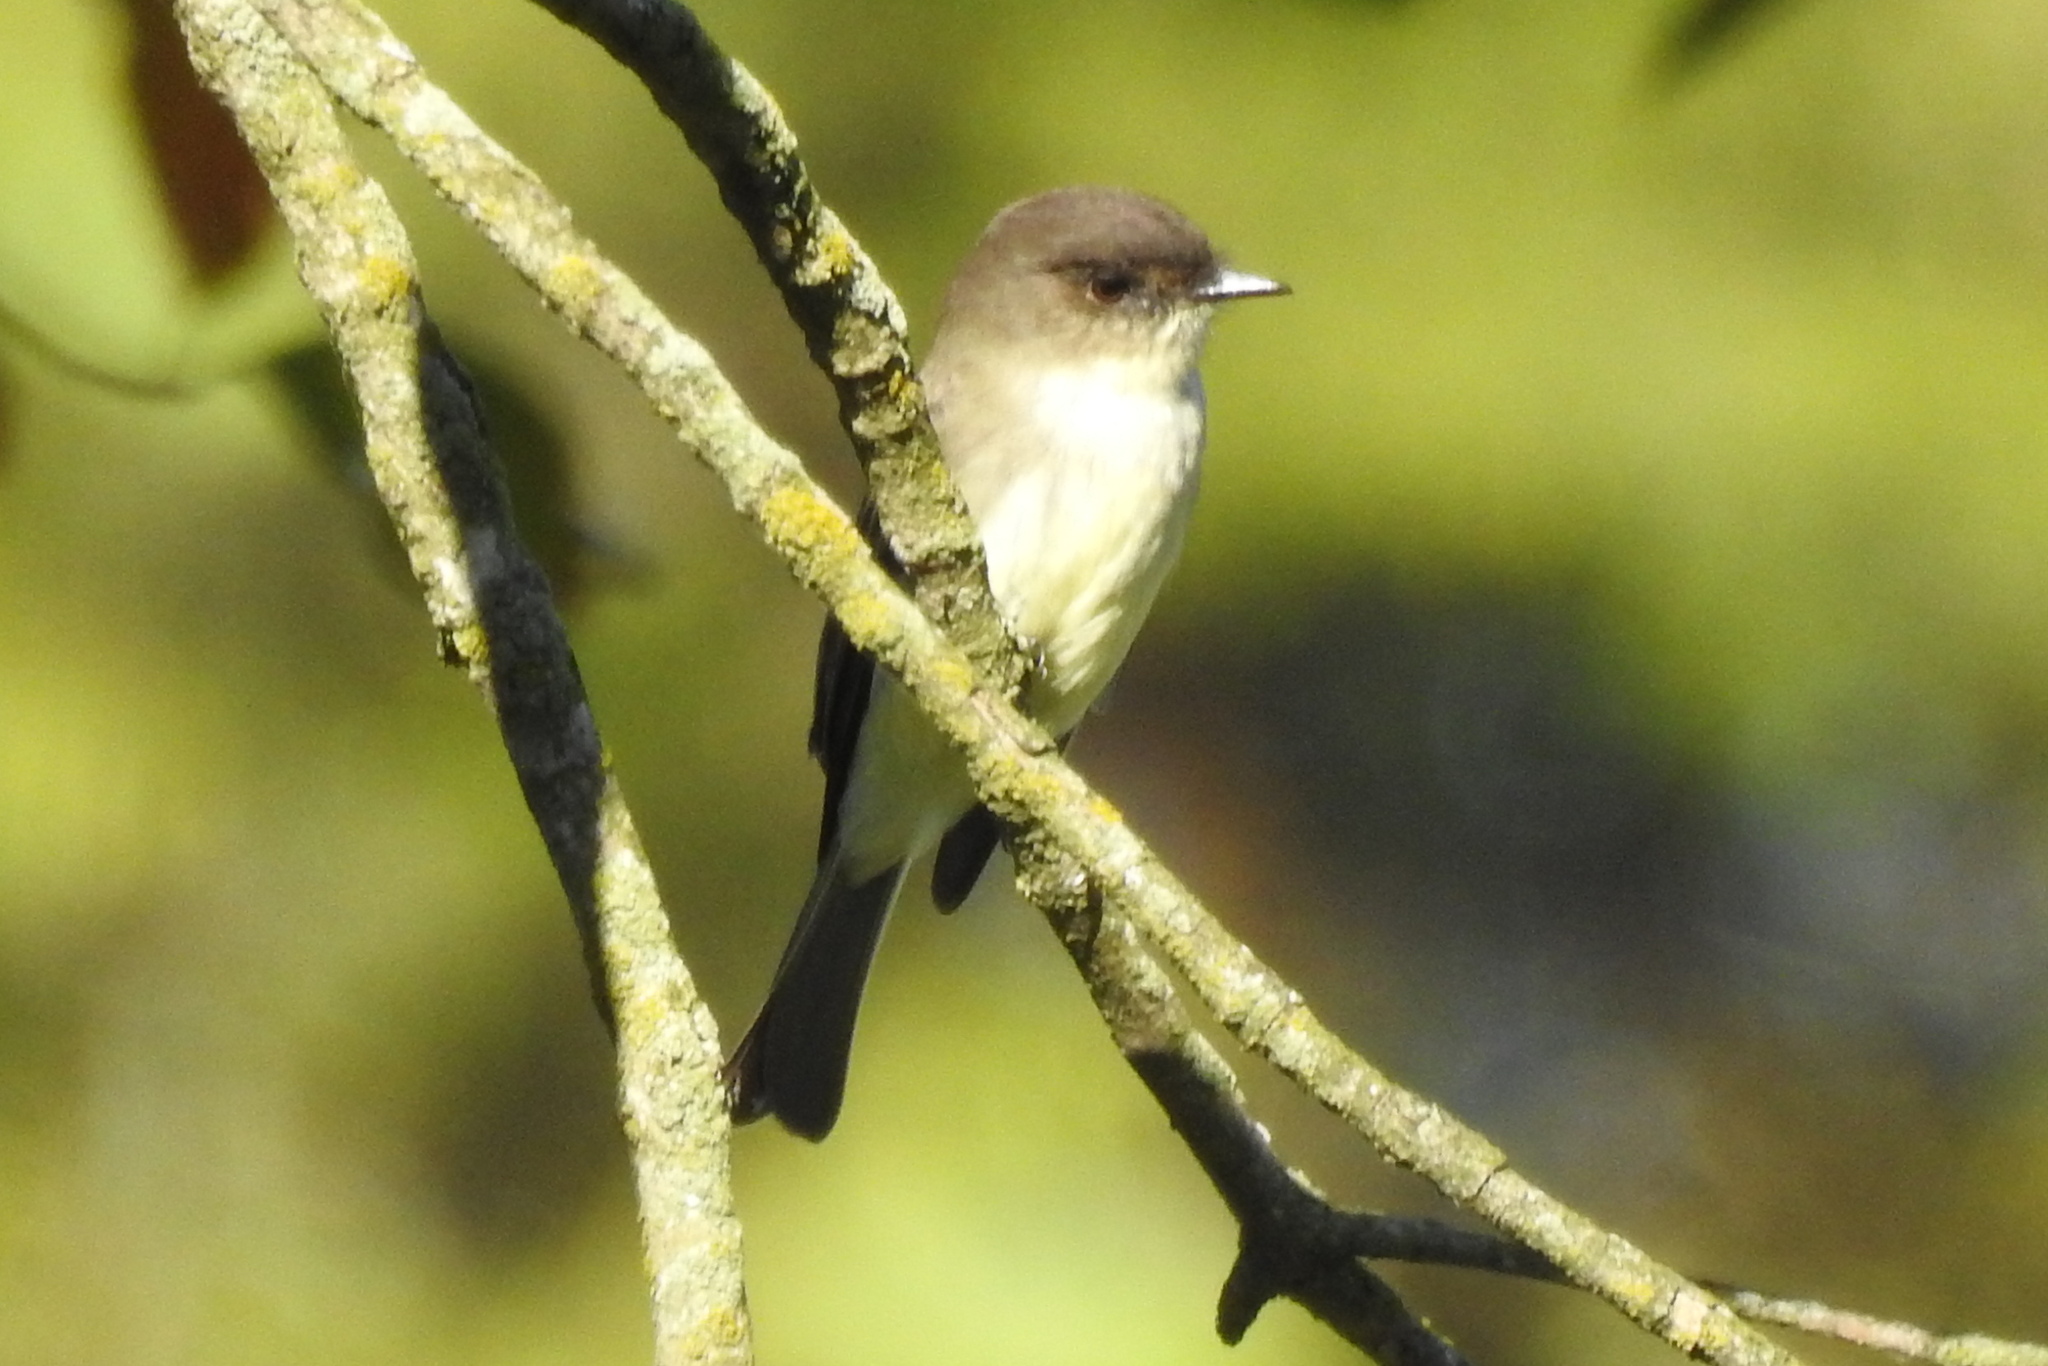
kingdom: Animalia
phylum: Chordata
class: Aves
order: Passeriformes
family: Tyrannidae
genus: Sayornis
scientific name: Sayornis phoebe
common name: Eastern phoebe
